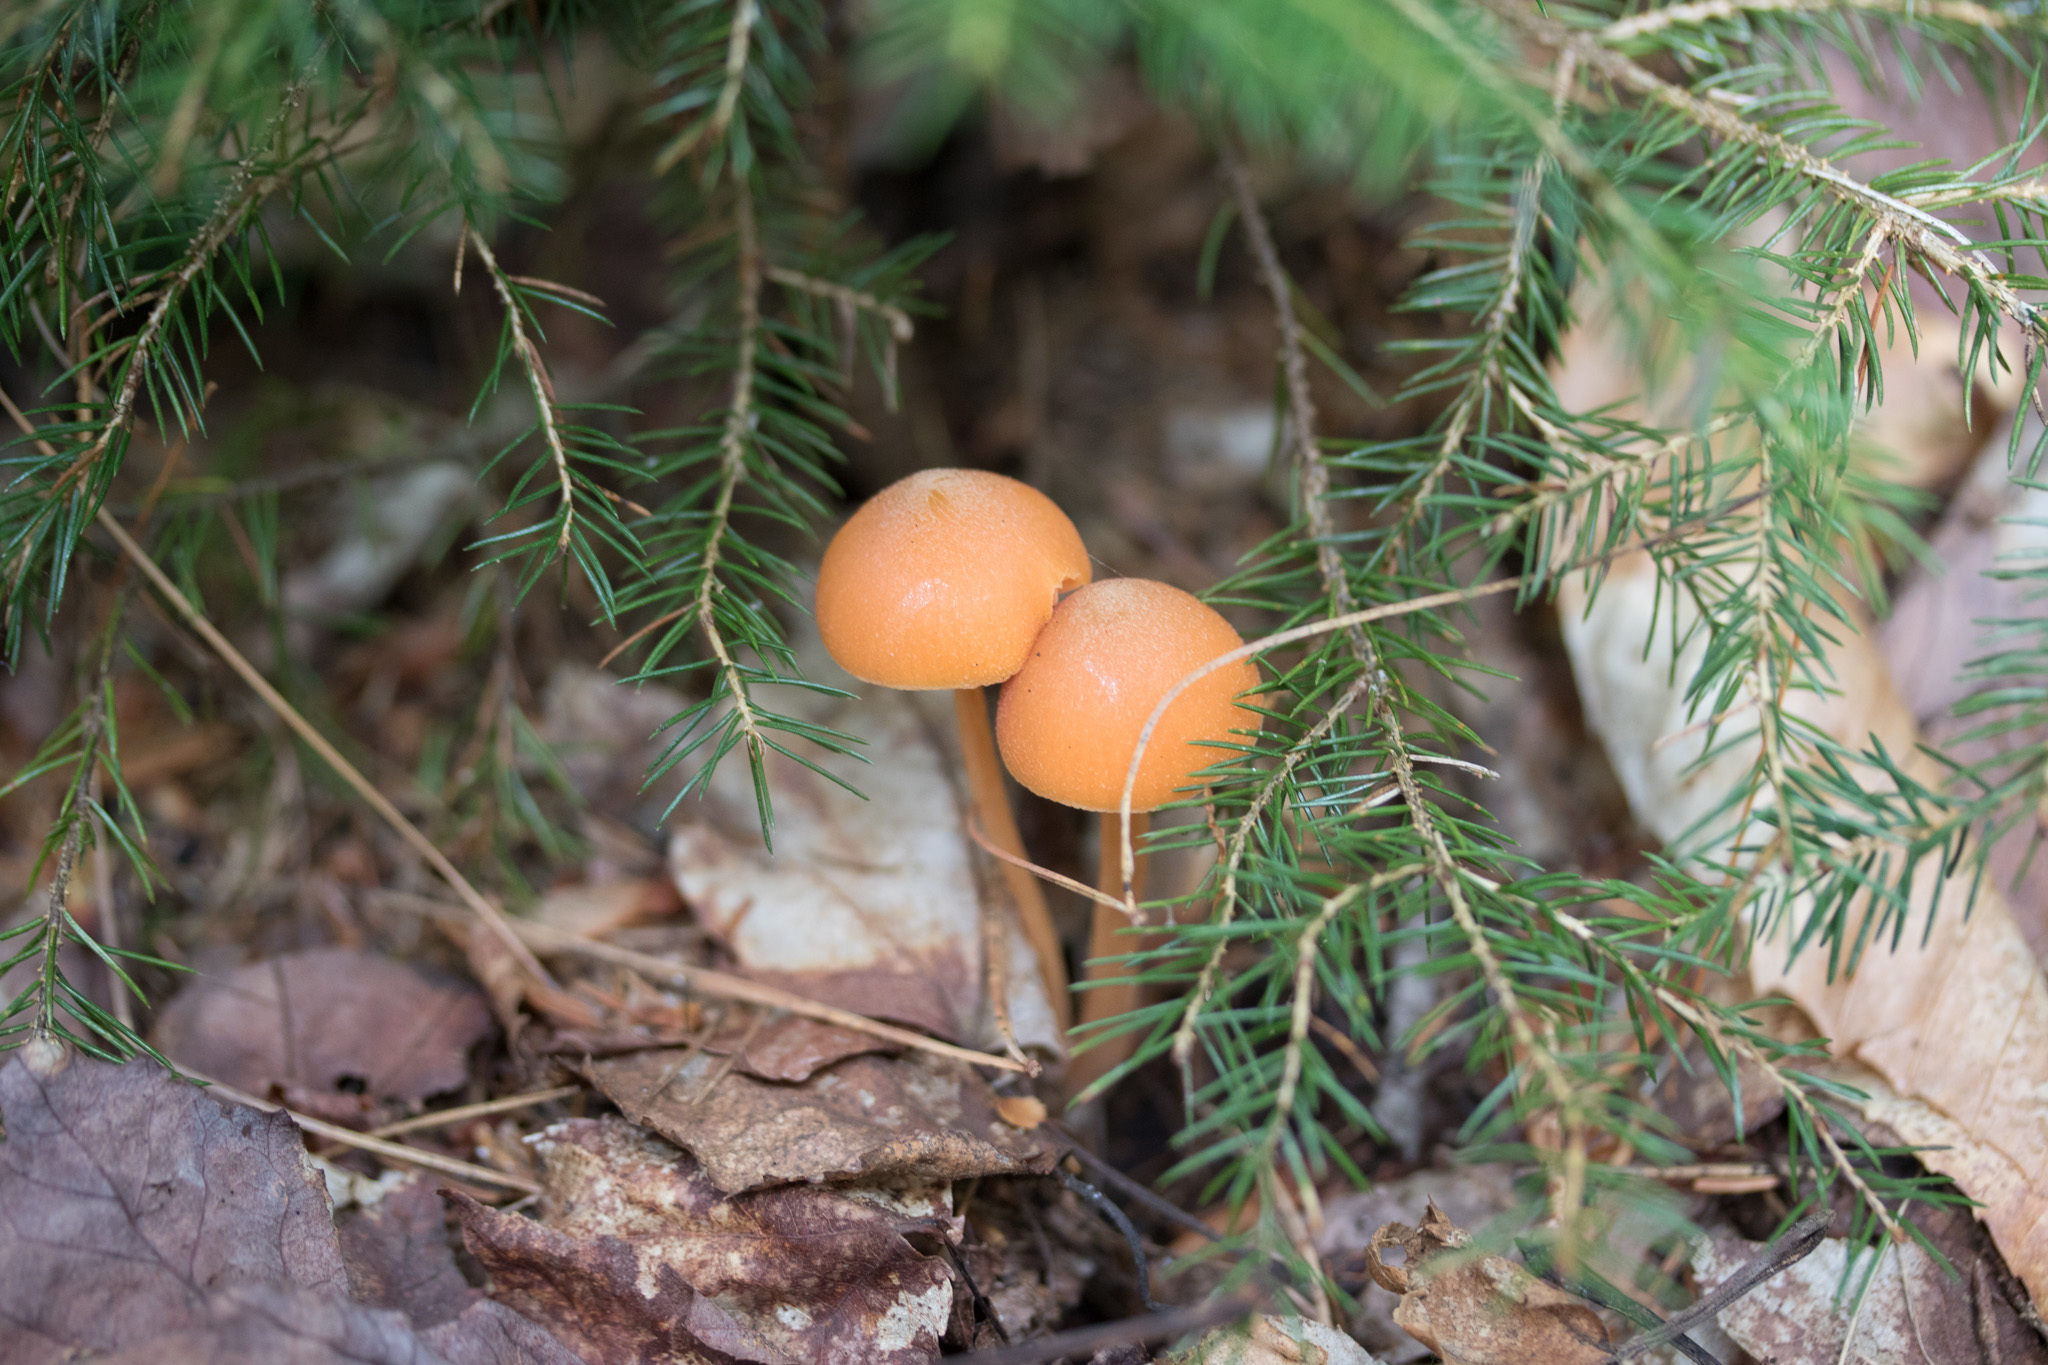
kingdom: Fungi
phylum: Basidiomycota
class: Agaricomycetes
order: Agaricales
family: Entolomataceae
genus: Entoloma
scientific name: Entoloma quadratum
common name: Salmon pinkgill
